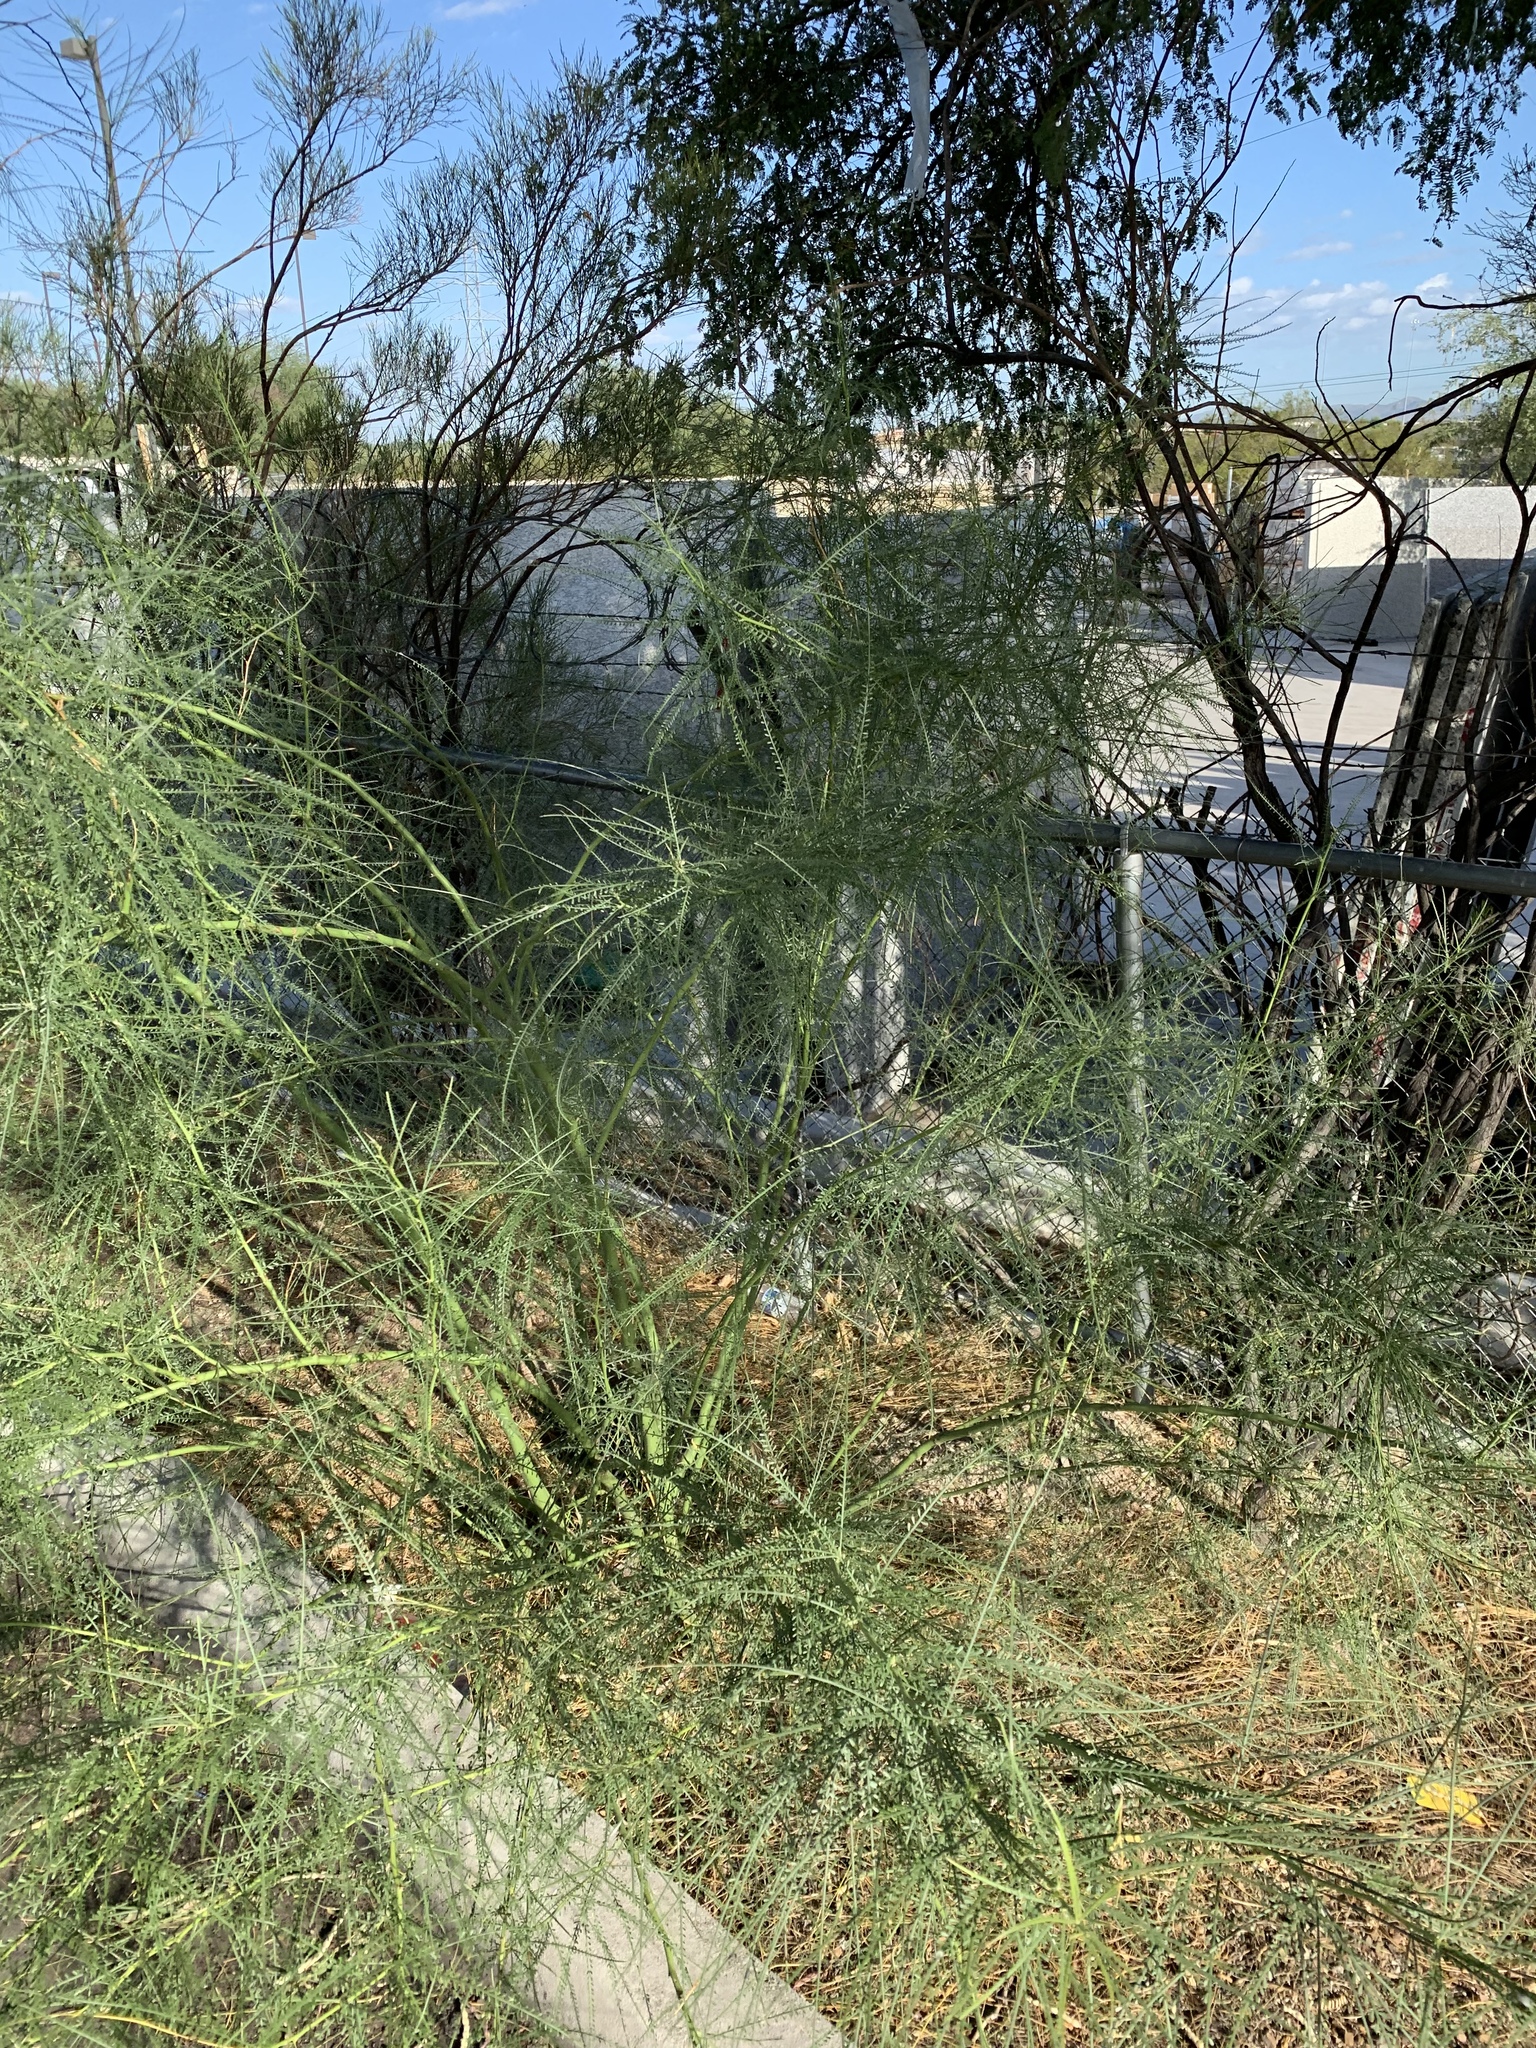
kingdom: Plantae
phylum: Tracheophyta
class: Magnoliopsida
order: Fabales
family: Fabaceae
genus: Parkinsonia
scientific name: Parkinsonia aculeata
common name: Jerusalem thorn
